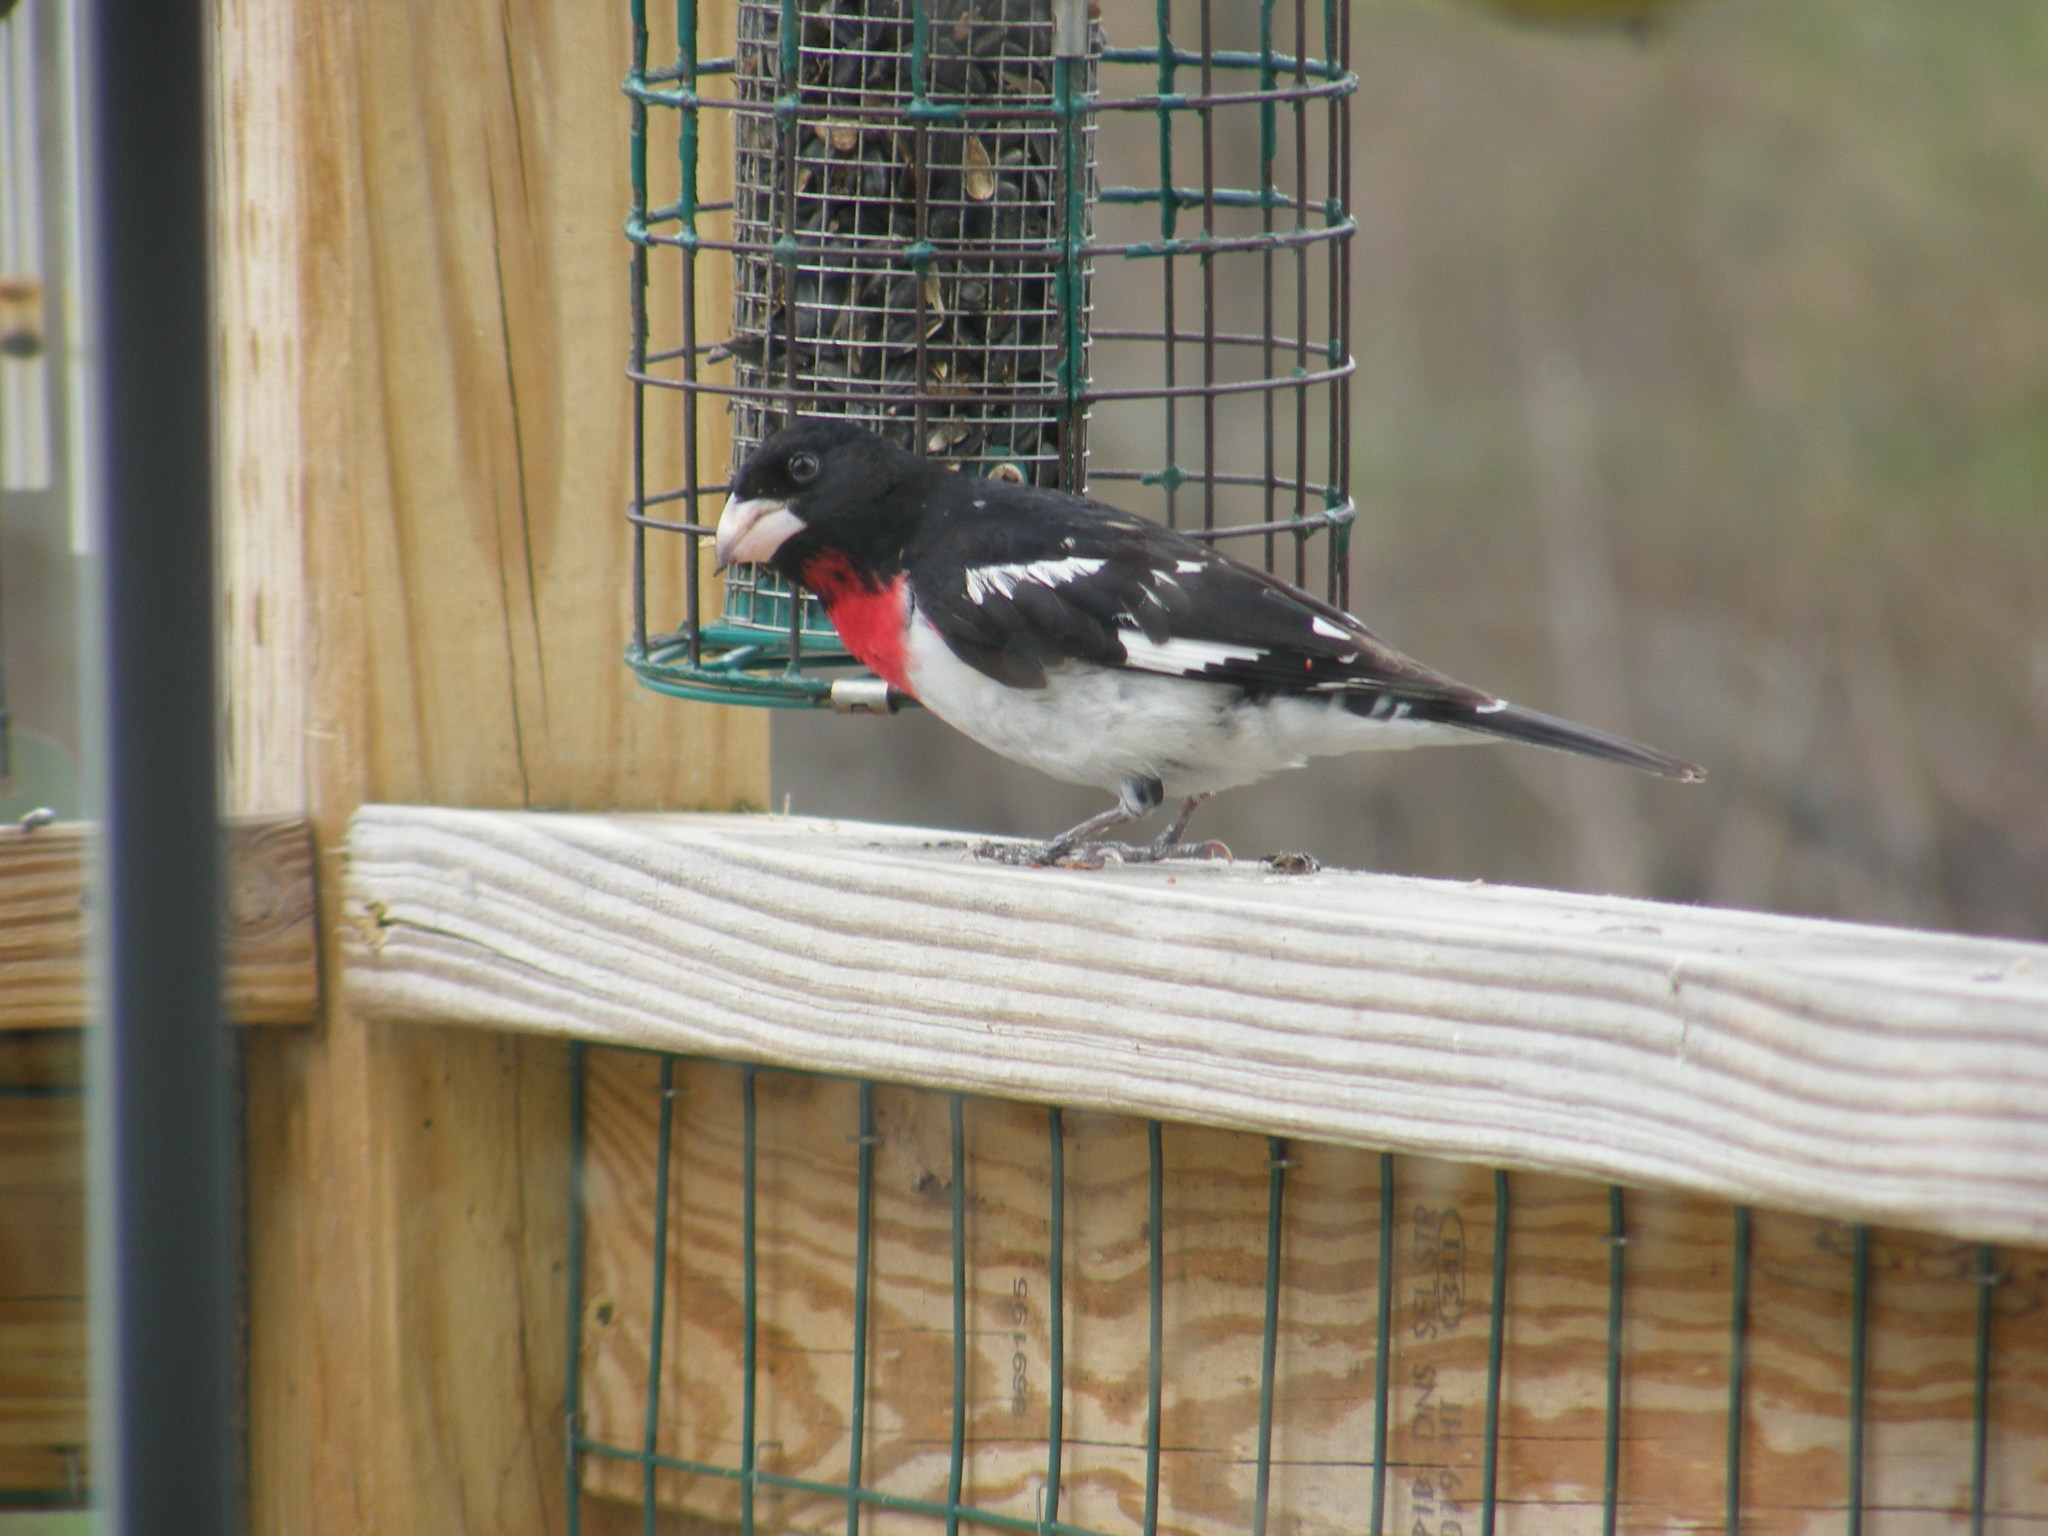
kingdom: Animalia
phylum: Chordata
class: Aves
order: Passeriformes
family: Cardinalidae
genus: Pheucticus
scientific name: Pheucticus ludovicianus
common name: Rose-breasted grosbeak
